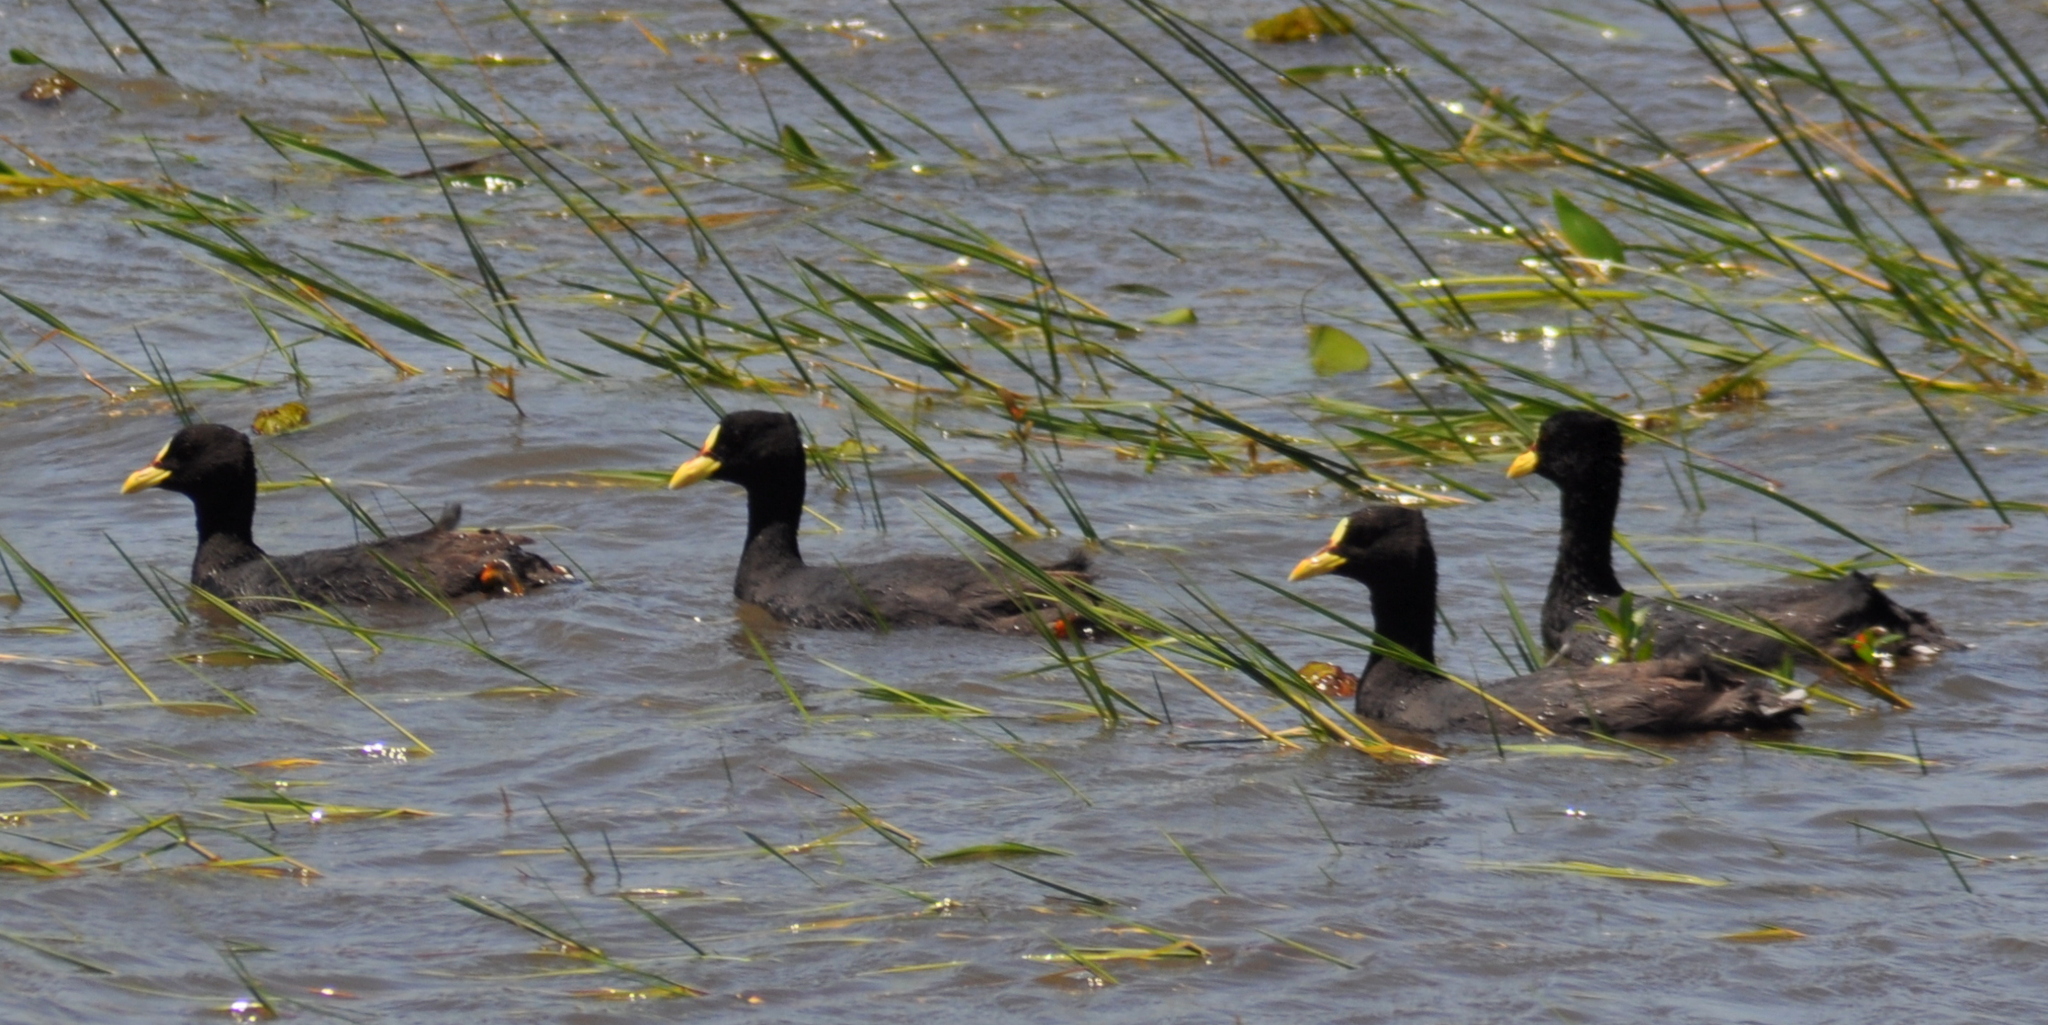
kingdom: Animalia
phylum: Chordata
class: Aves
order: Gruiformes
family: Rallidae
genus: Fulica
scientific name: Fulica armillata
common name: Red-gartered coot
